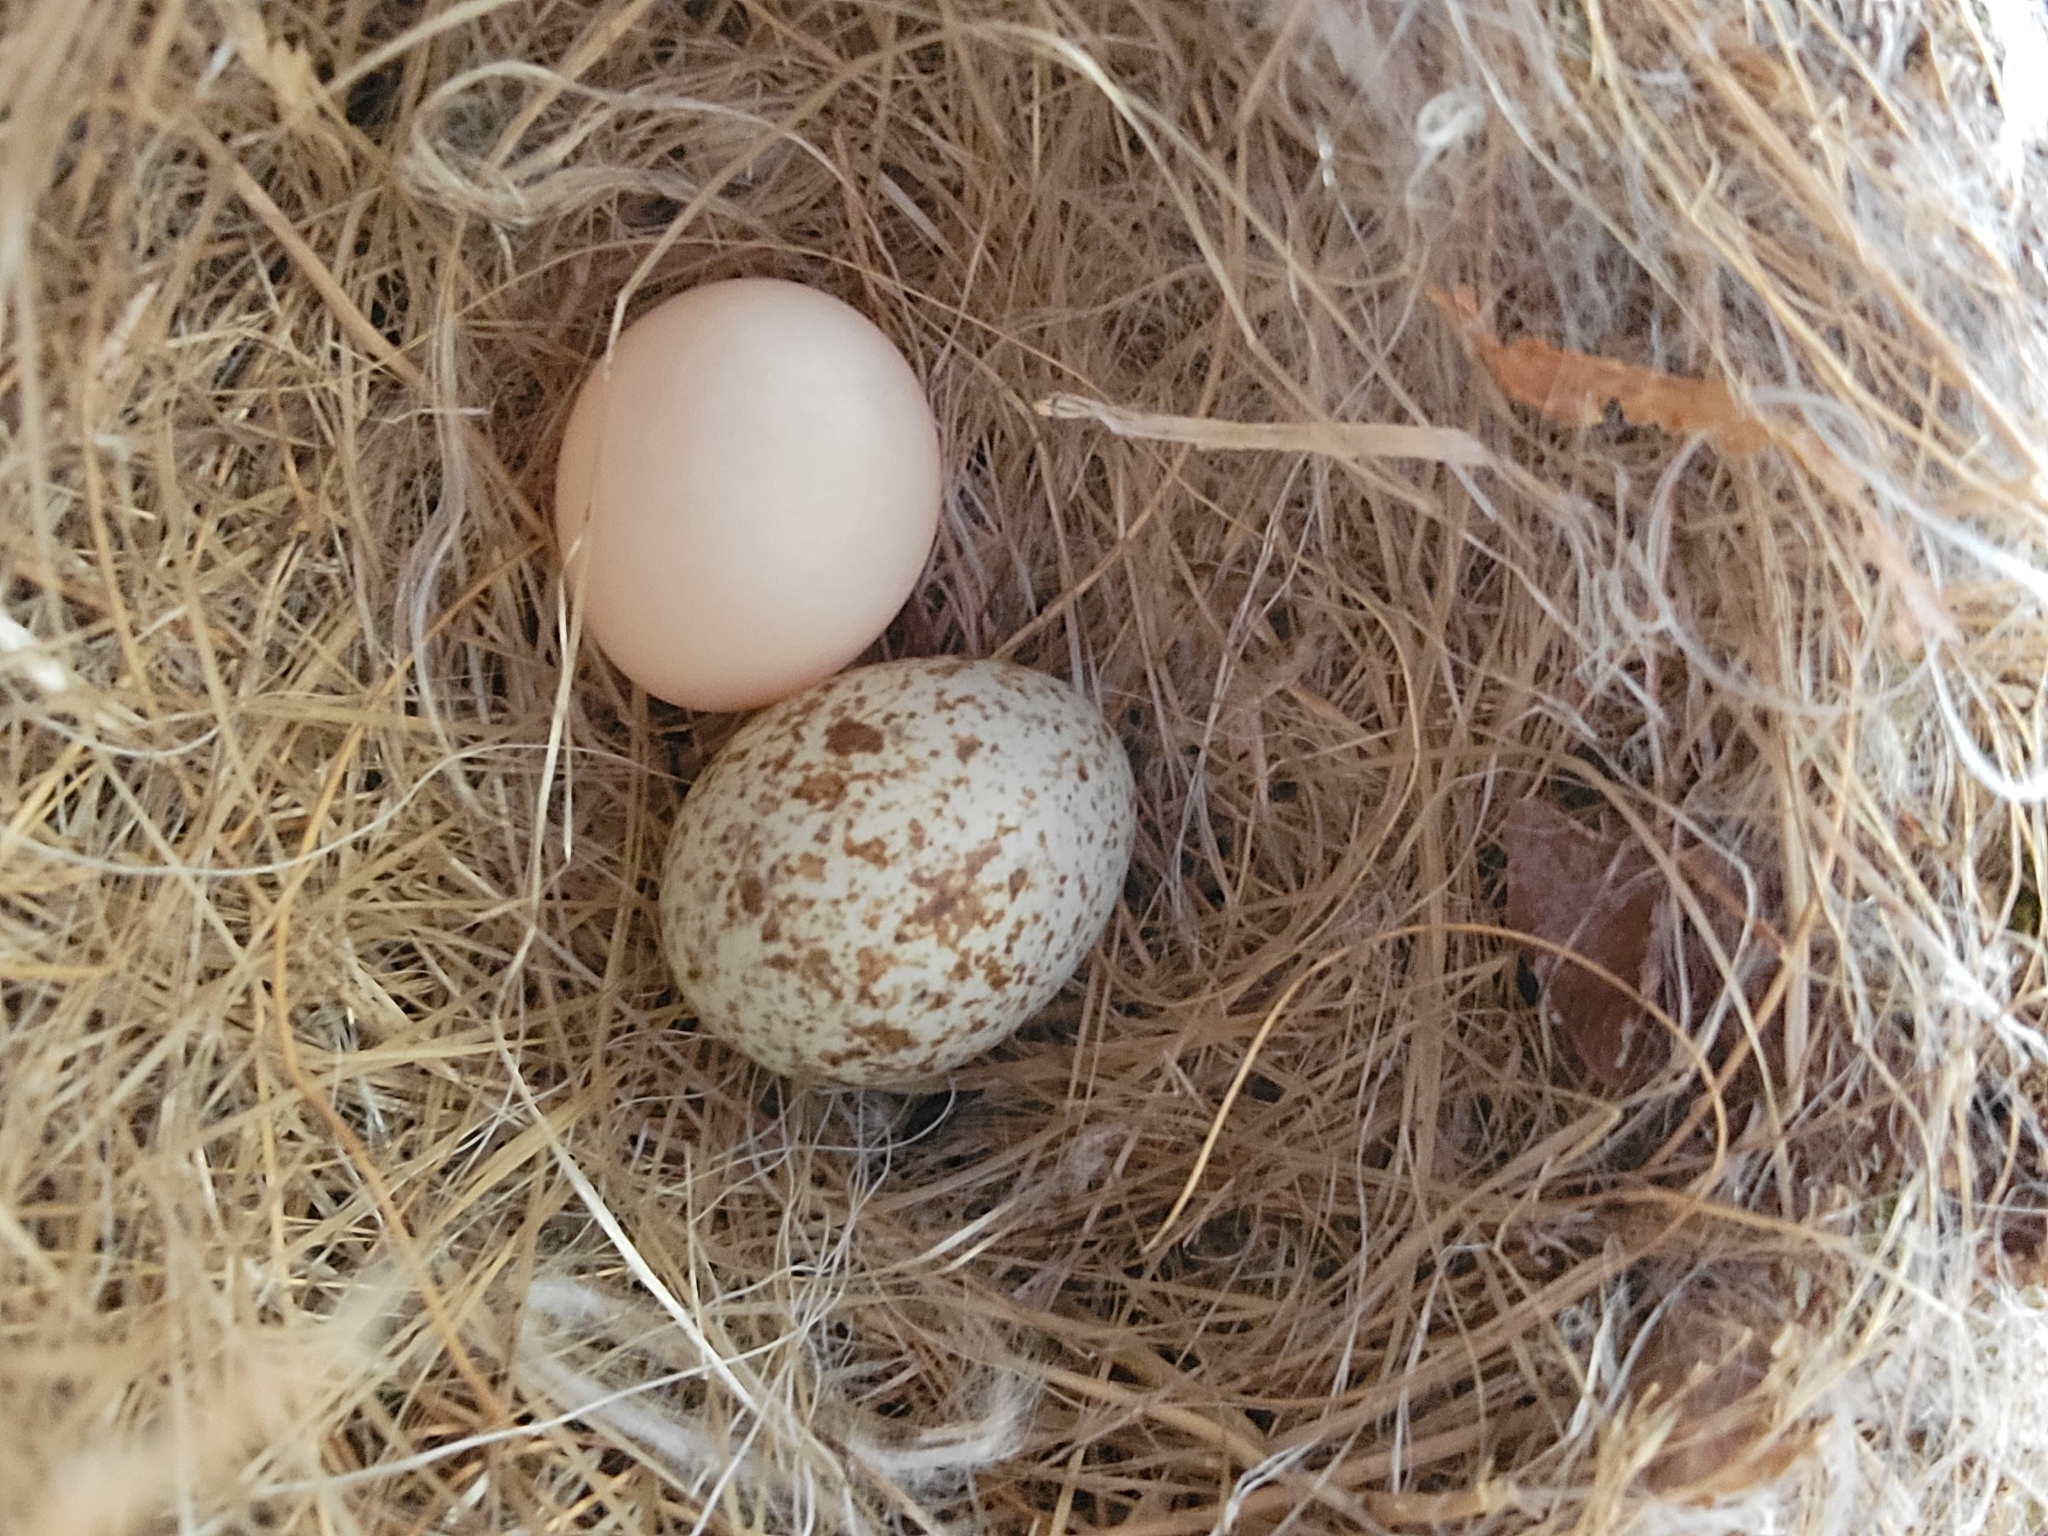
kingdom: Animalia
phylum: Chordata
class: Aves
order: Passeriformes
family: Icteridae
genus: Molothrus
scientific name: Molothrus ater
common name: Brown-headed cowbird
